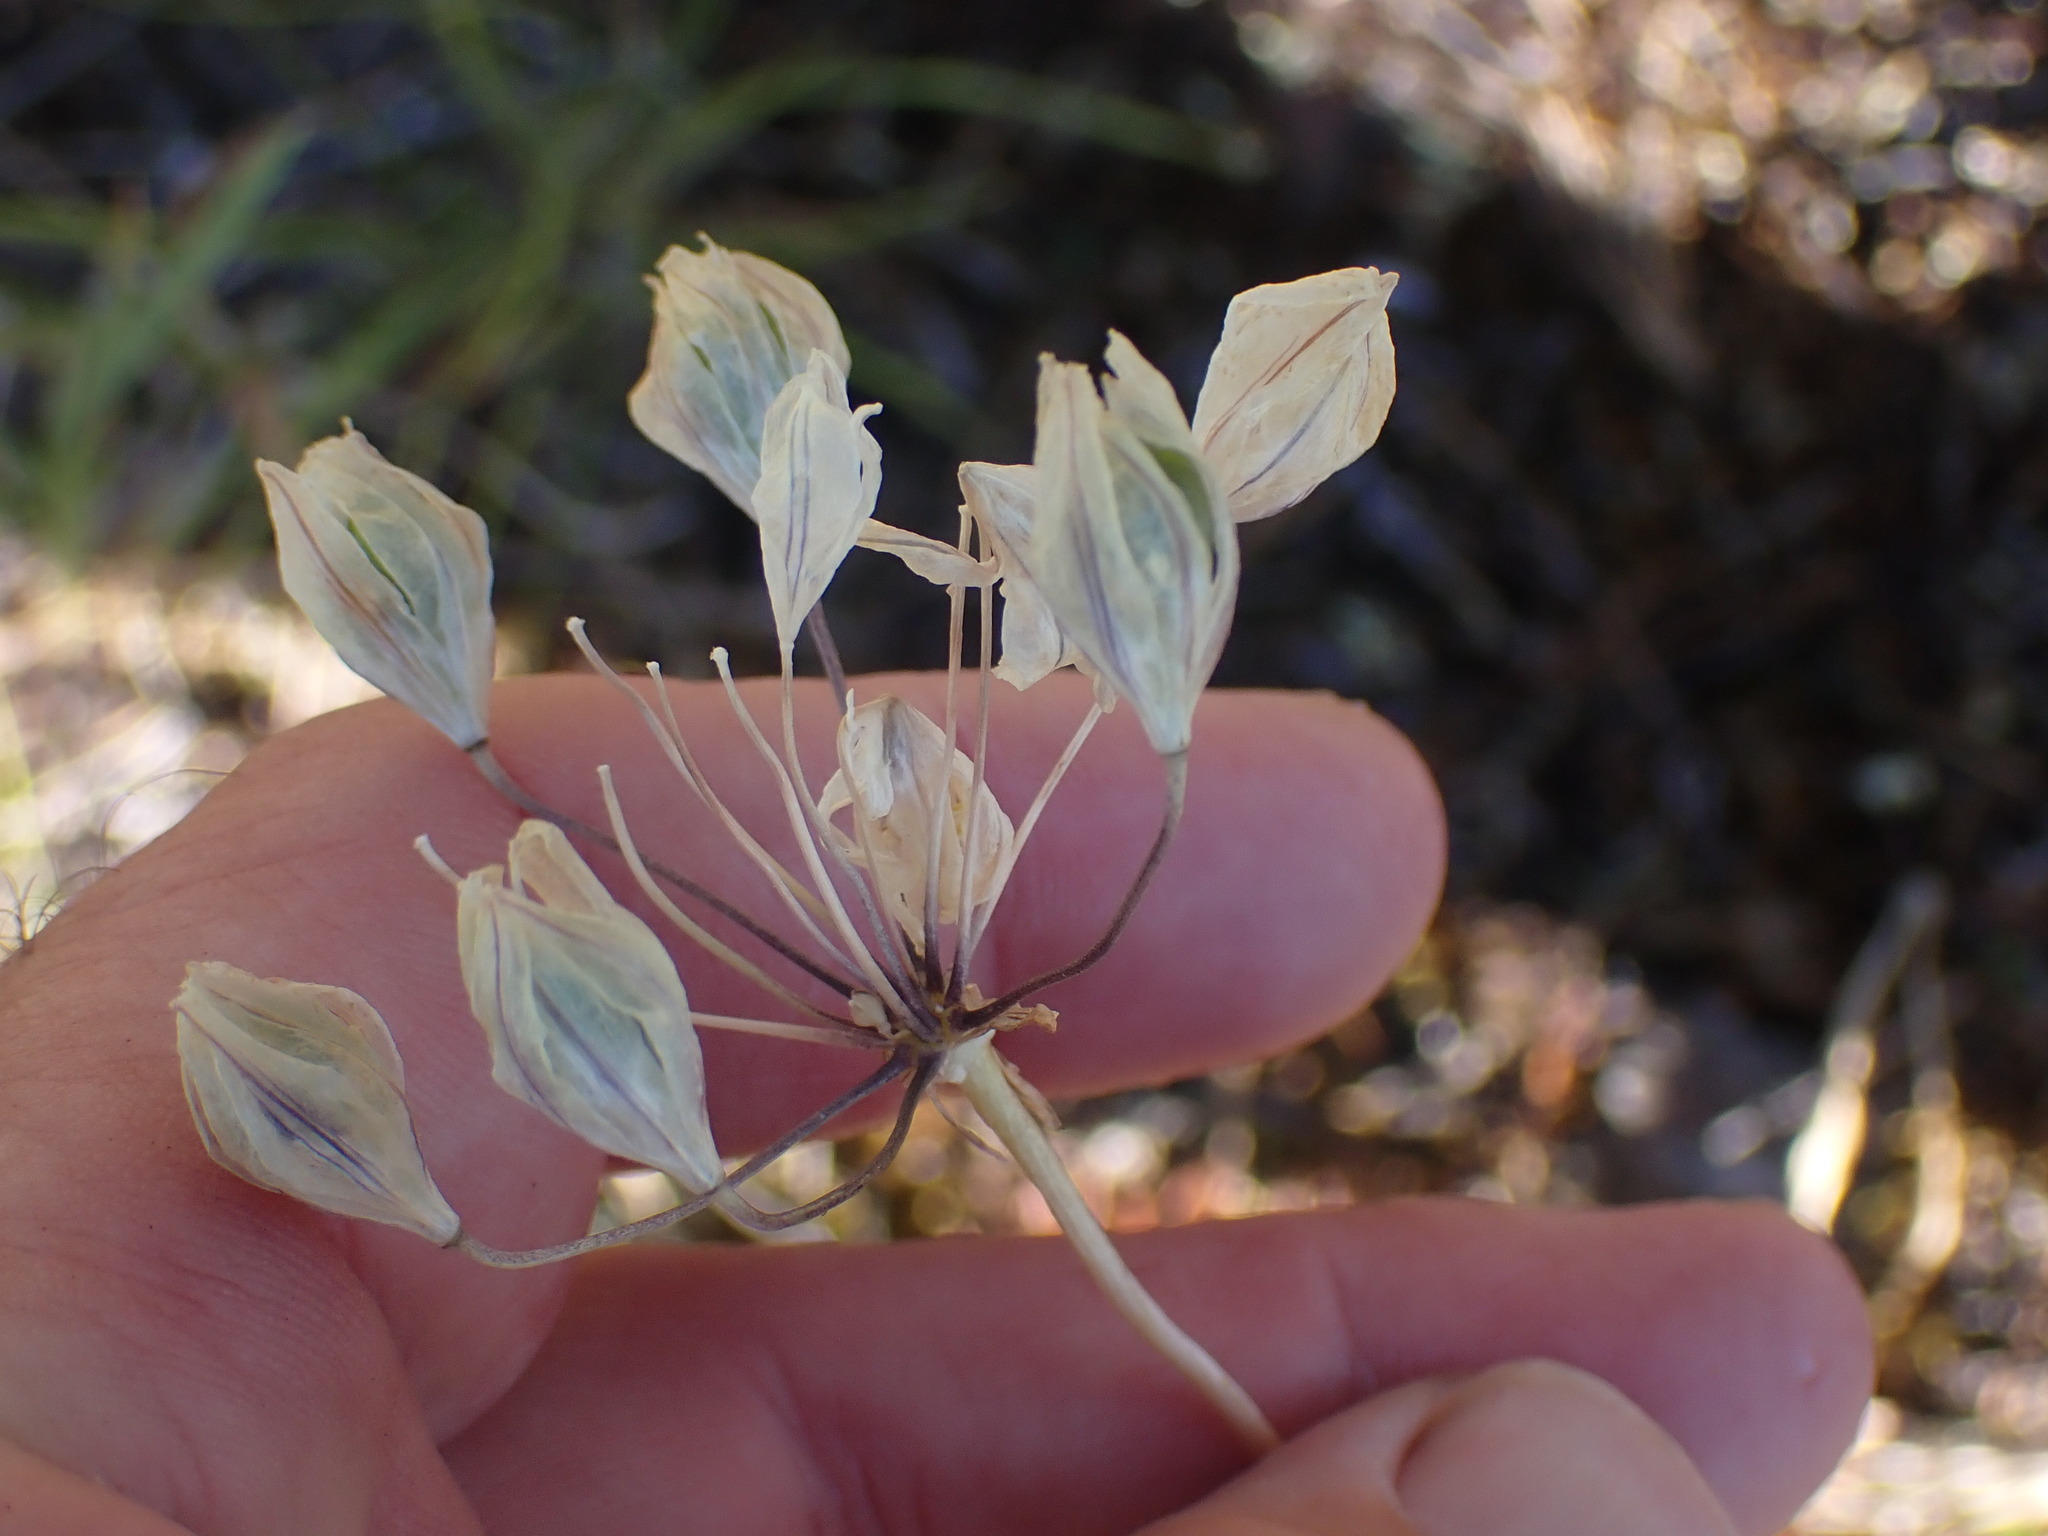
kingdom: Plantae
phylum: Tracheophyta
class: Liliopsida
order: Asparagales
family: Asparagaceae
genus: Triteleia
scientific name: Triteleia hyacinthina
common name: White brodiaea
